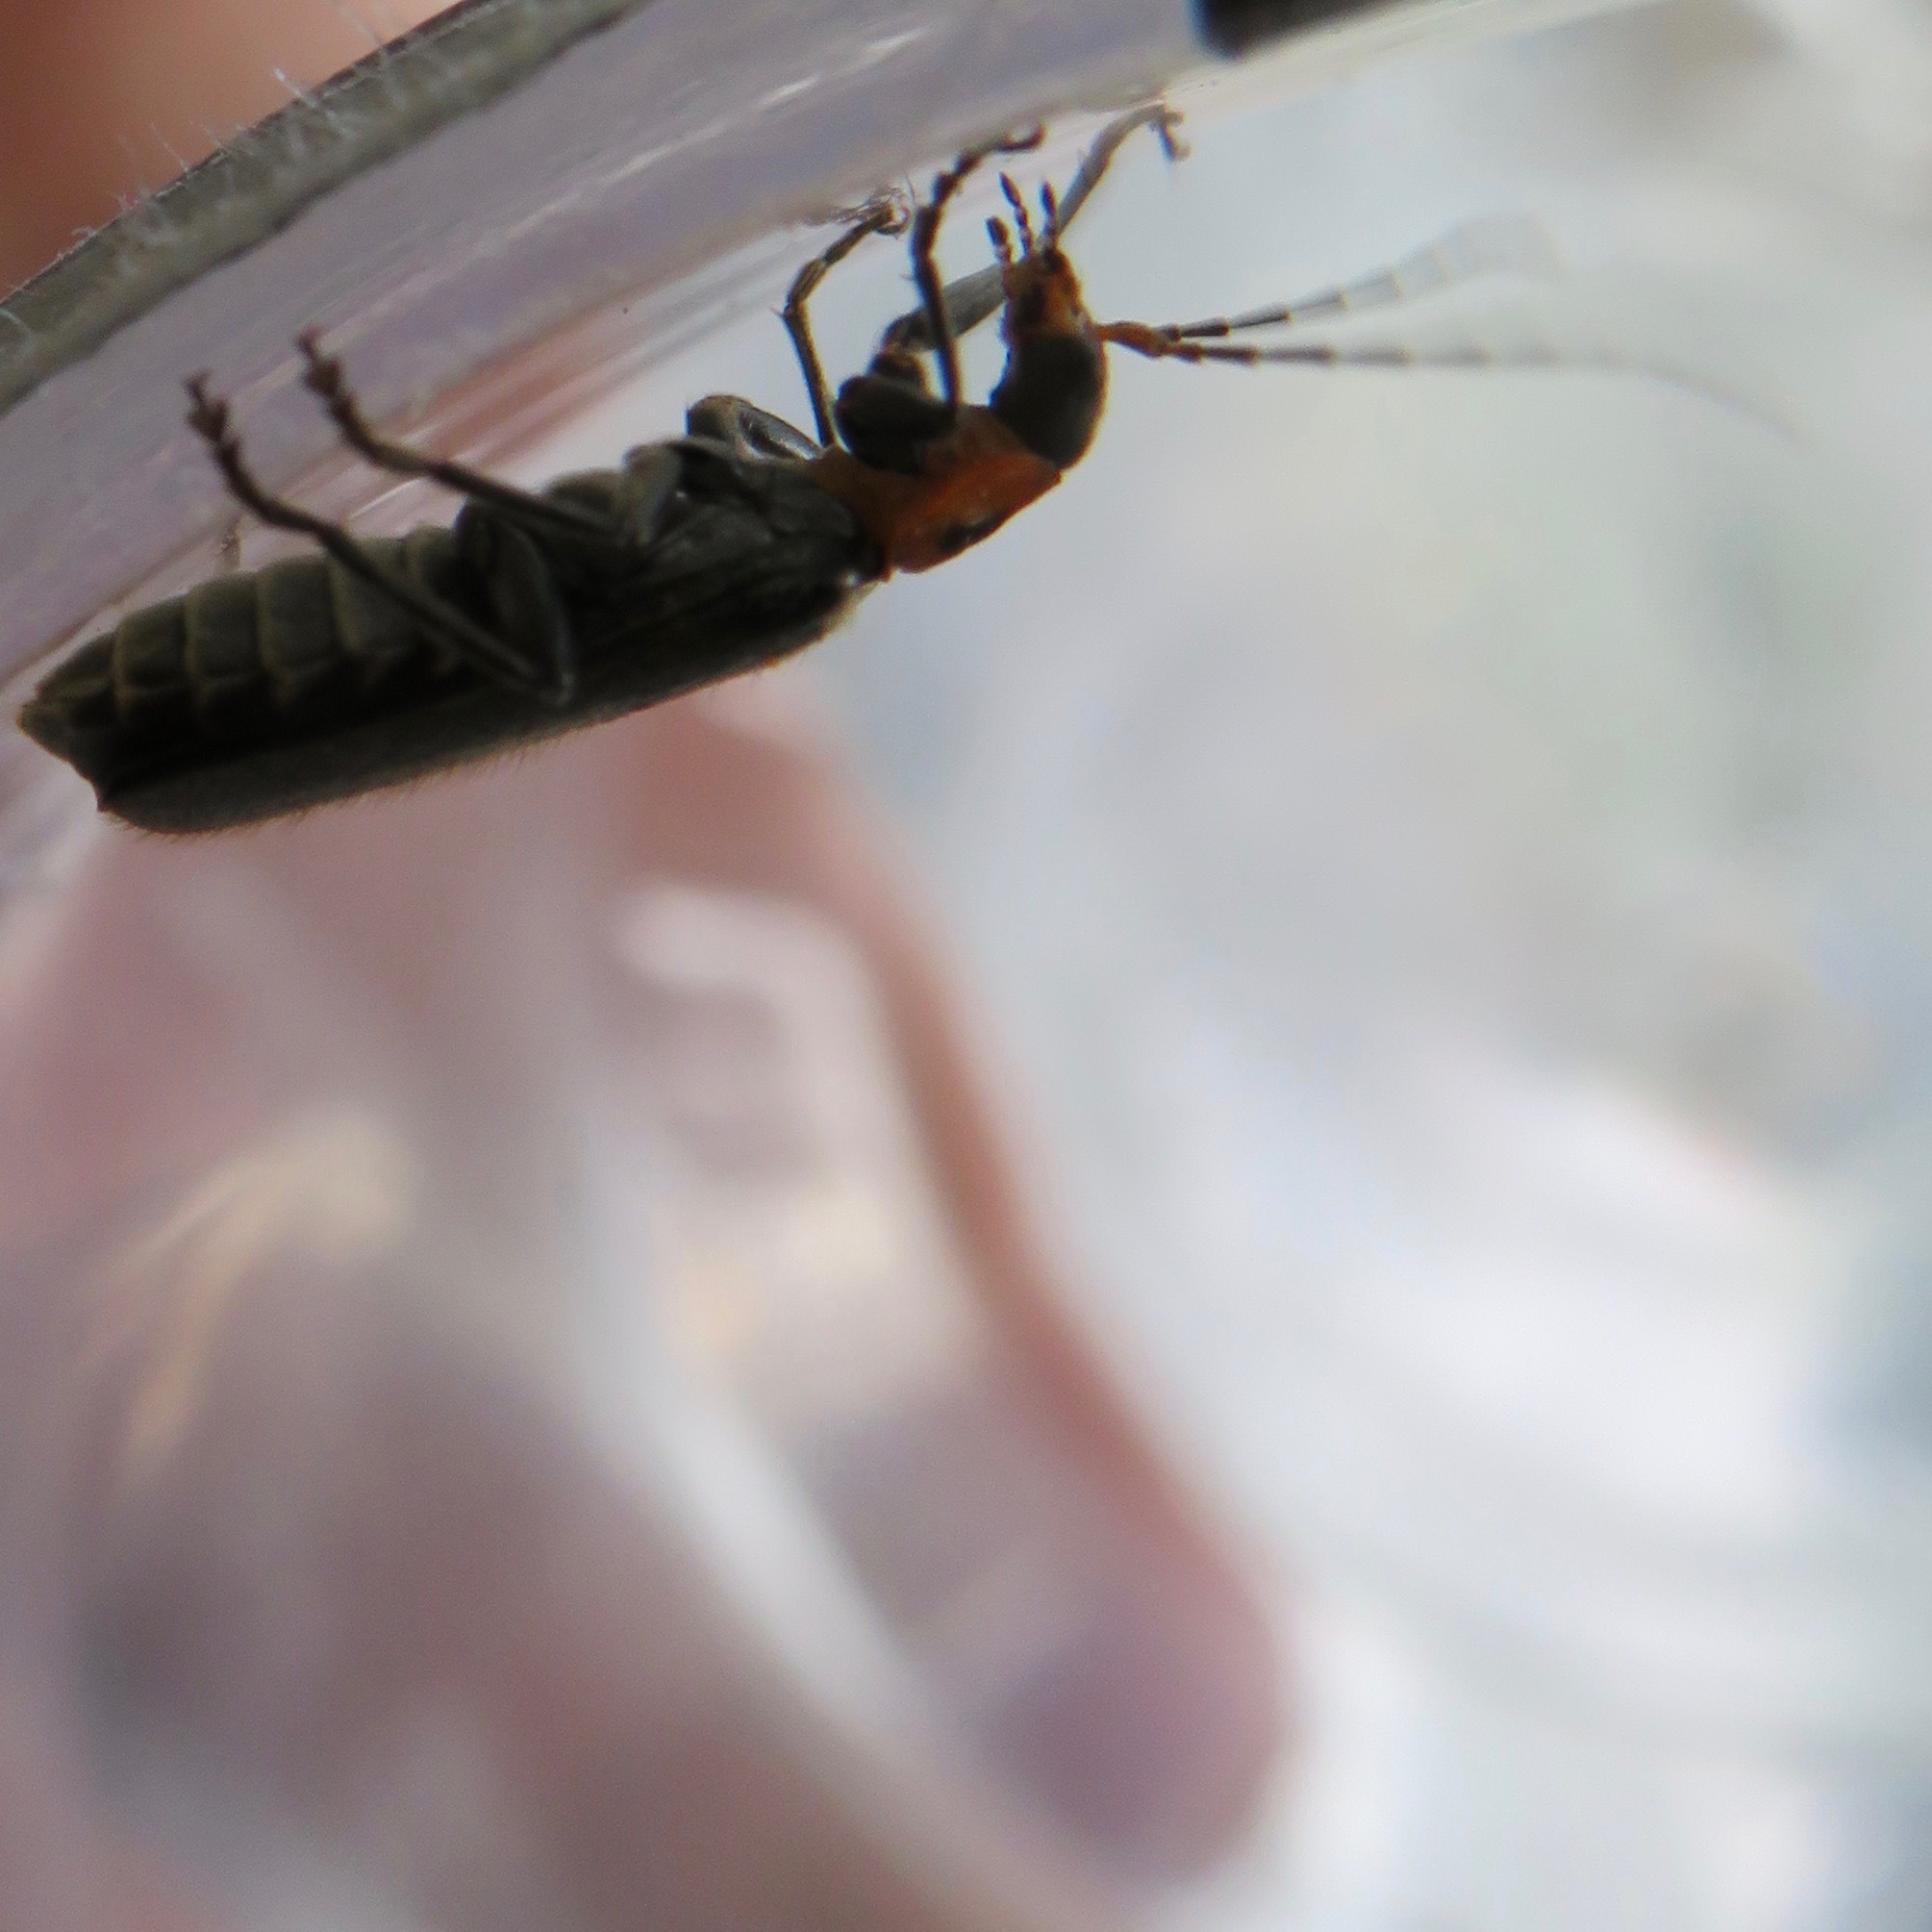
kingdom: Animalia
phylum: Arthropoda
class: Insecta
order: Coleoptera
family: Cantharidae
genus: Cyrtomoptera
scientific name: Cyrtomoptera divisa
